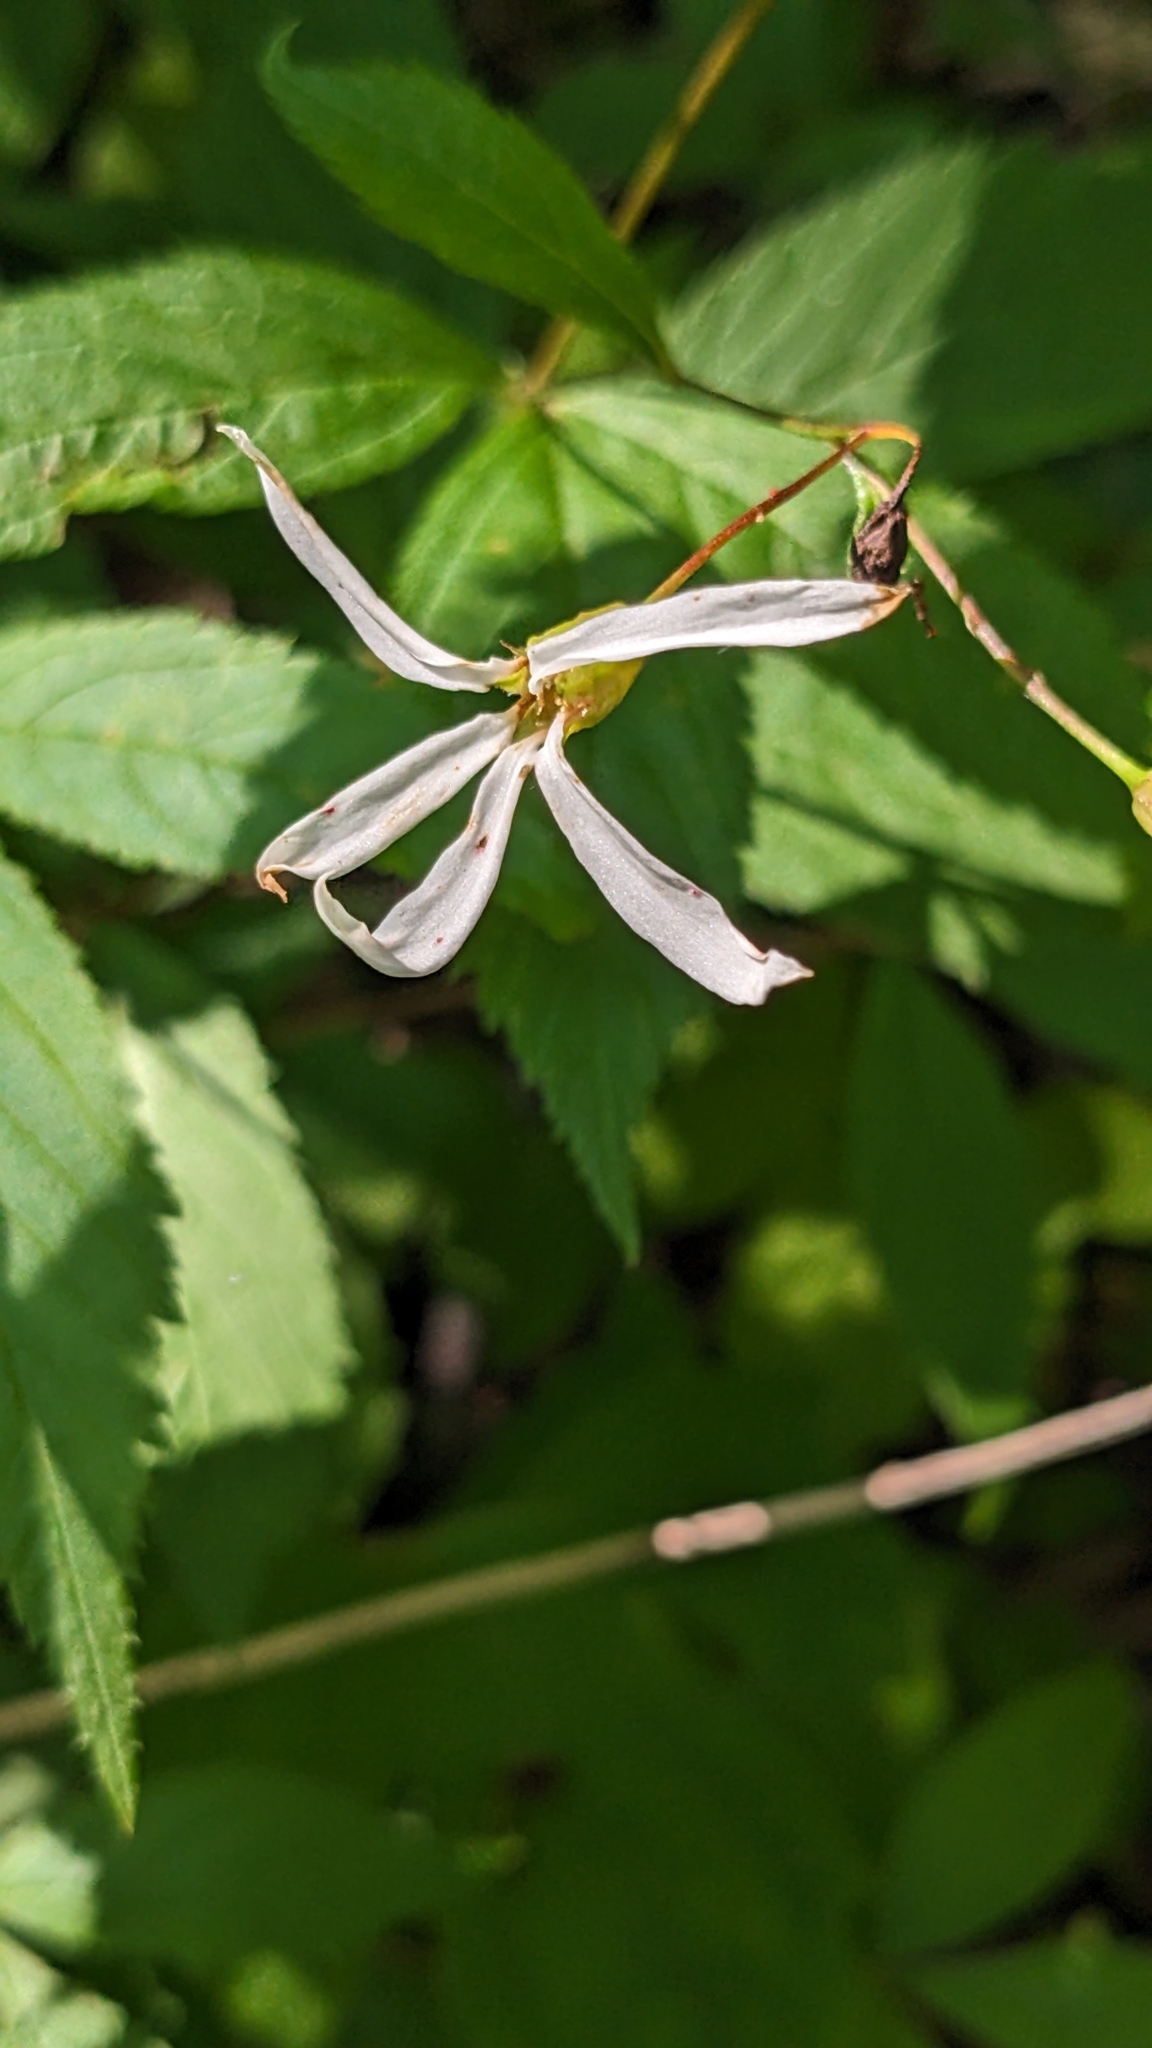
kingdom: Plantae
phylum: Tracheophyta
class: Magnoliopsida
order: Rosales
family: Rosaceae
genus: Gillenia
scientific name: Gillenia trifoliata
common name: Bowman's-root
